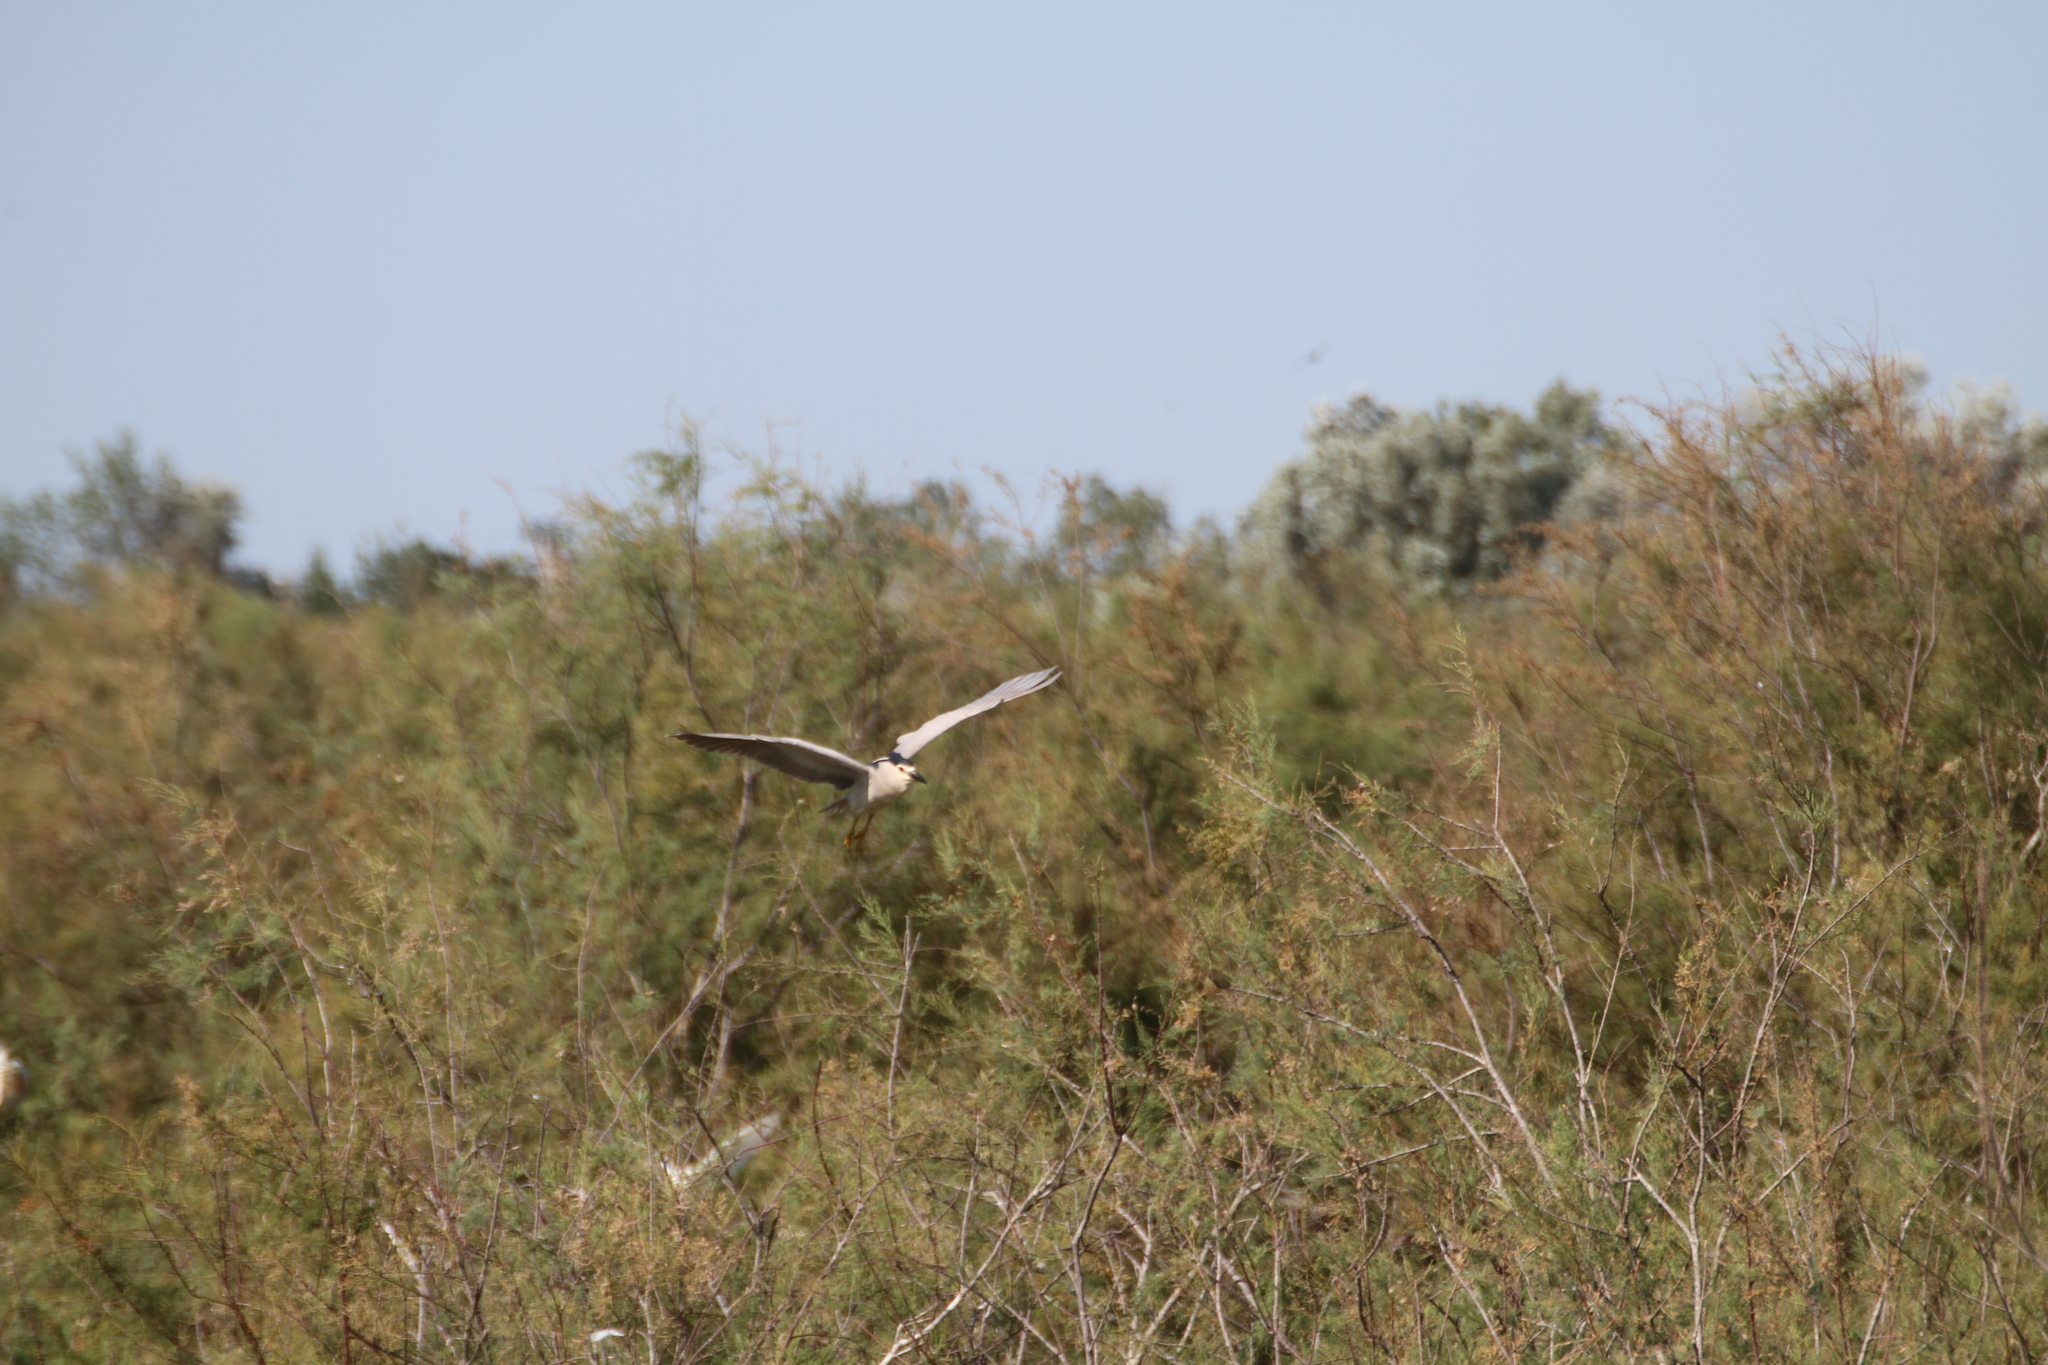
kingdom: Animalia
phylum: Chordata
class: Aves
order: Pelecaniformes
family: Ardeidae
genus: Nycticorax
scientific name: Nycticorax nycticorax
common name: Black-crowned night heron
